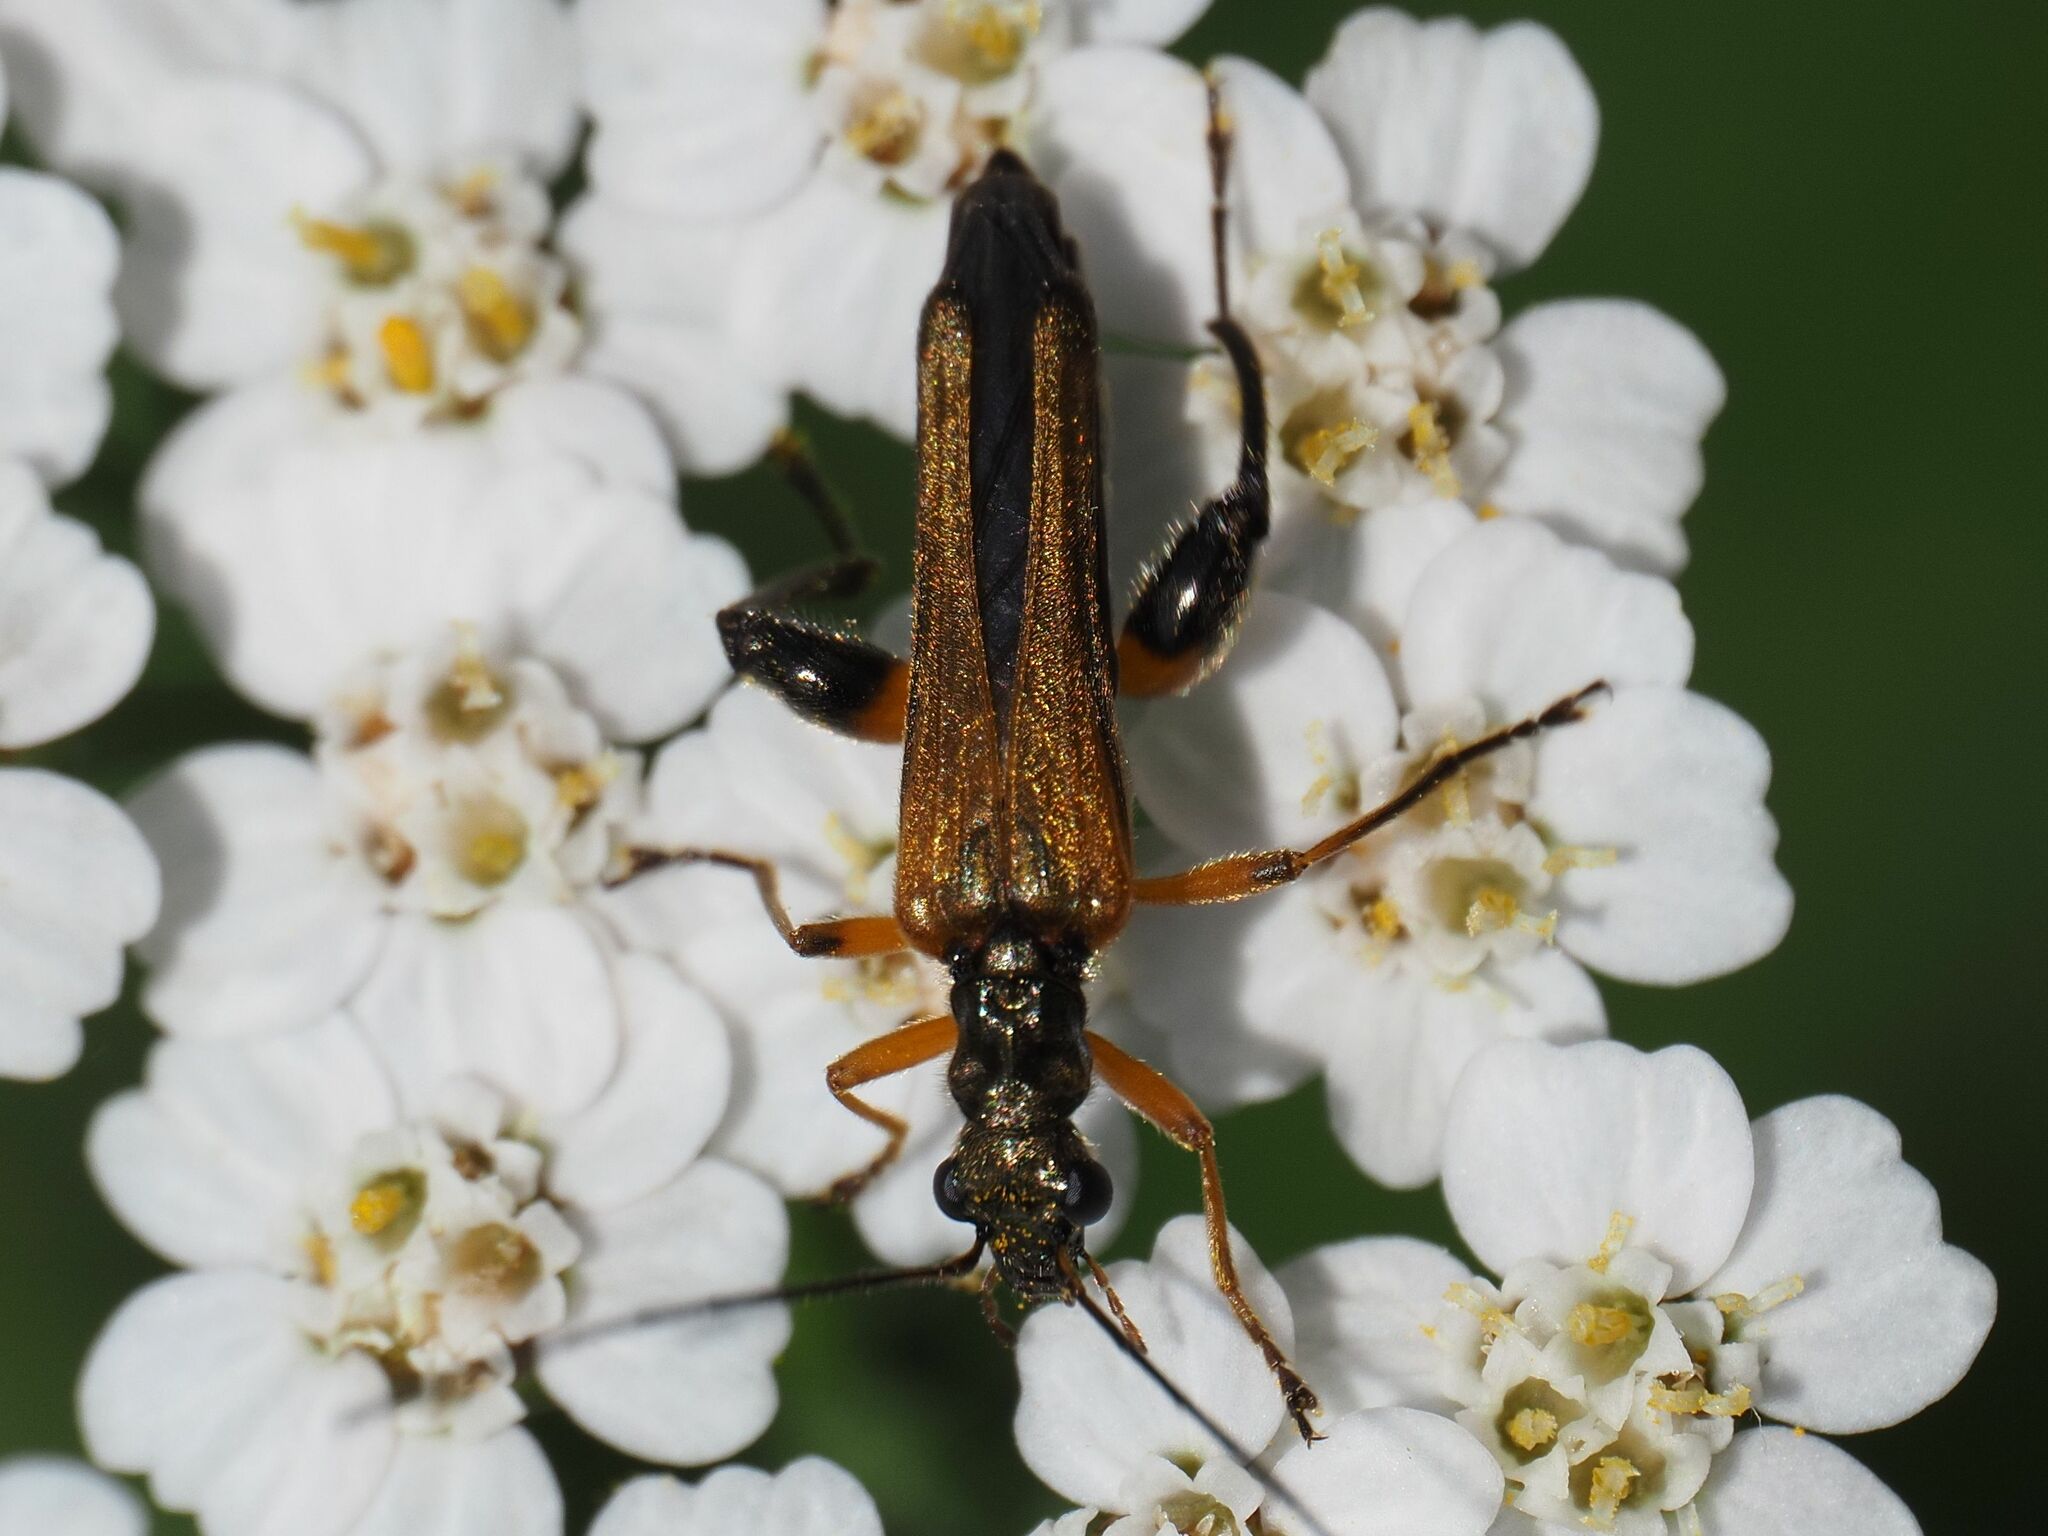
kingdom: Animalia
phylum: Arthropoda
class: Insecta
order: Coleoptera
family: Oedemeridae
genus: Oedemera
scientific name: Oedemera podagrariae
